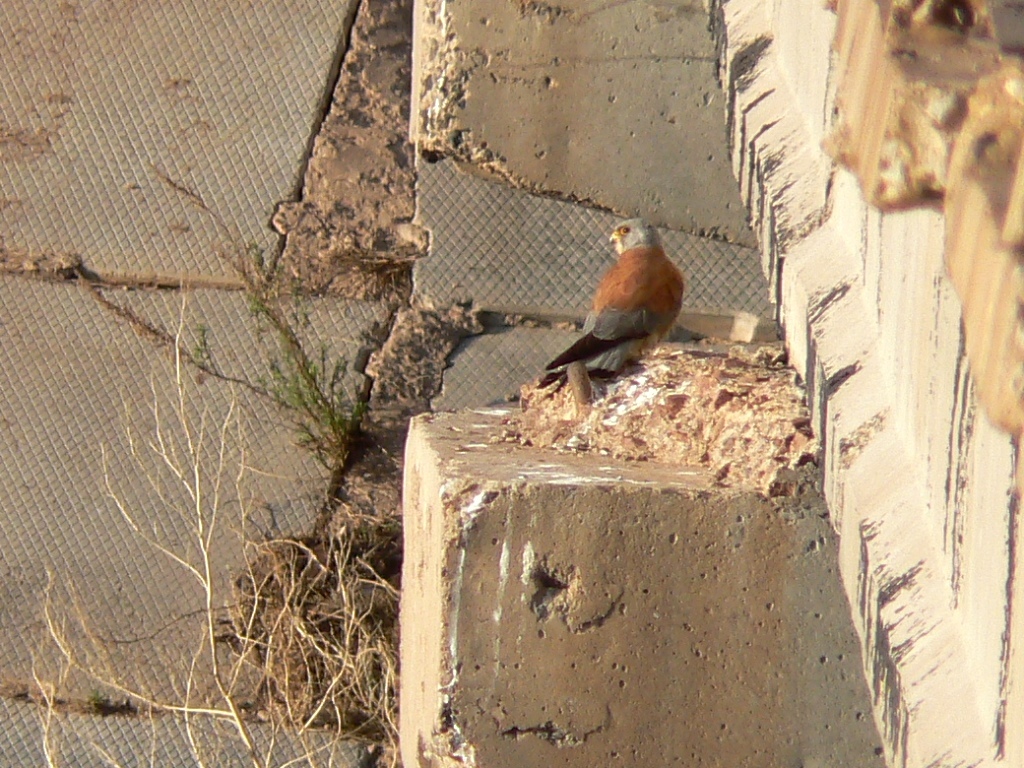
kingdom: Animalia
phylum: Chordata
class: Aves
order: Falconiformes
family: Falconidae
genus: Falco
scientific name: Falco naumanni
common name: Lesser kestrel
